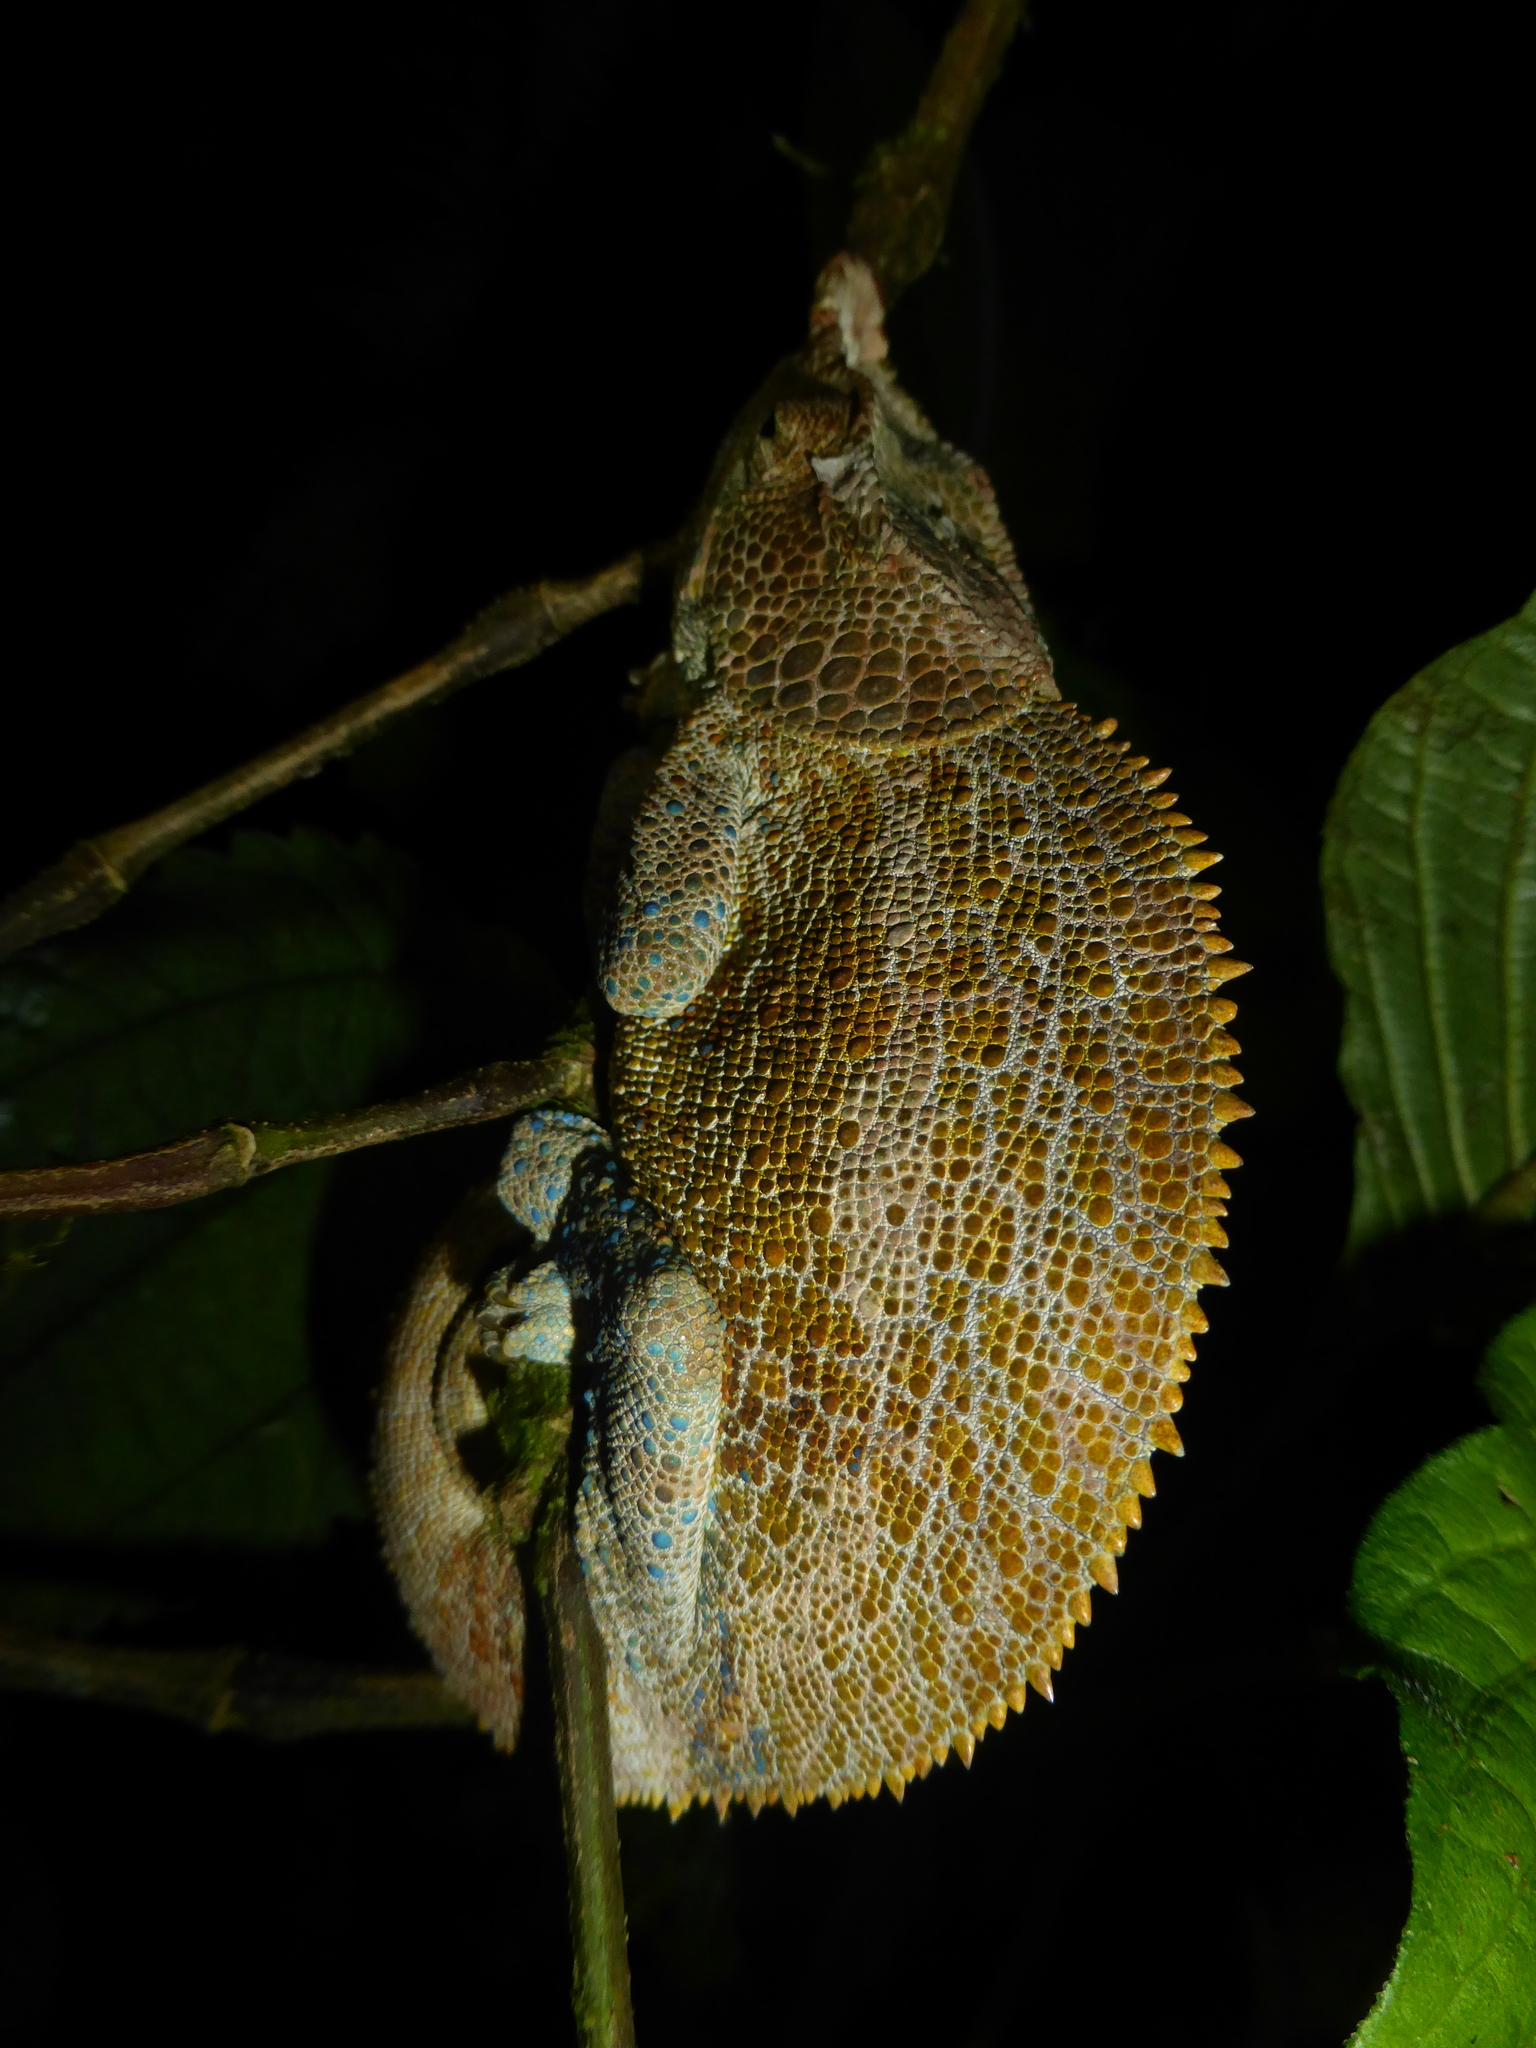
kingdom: Animalia
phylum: Chordata
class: Squamata
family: Chamaeleonidae
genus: Calumma
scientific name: Calumma crypticum
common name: Cryptic chameleon
